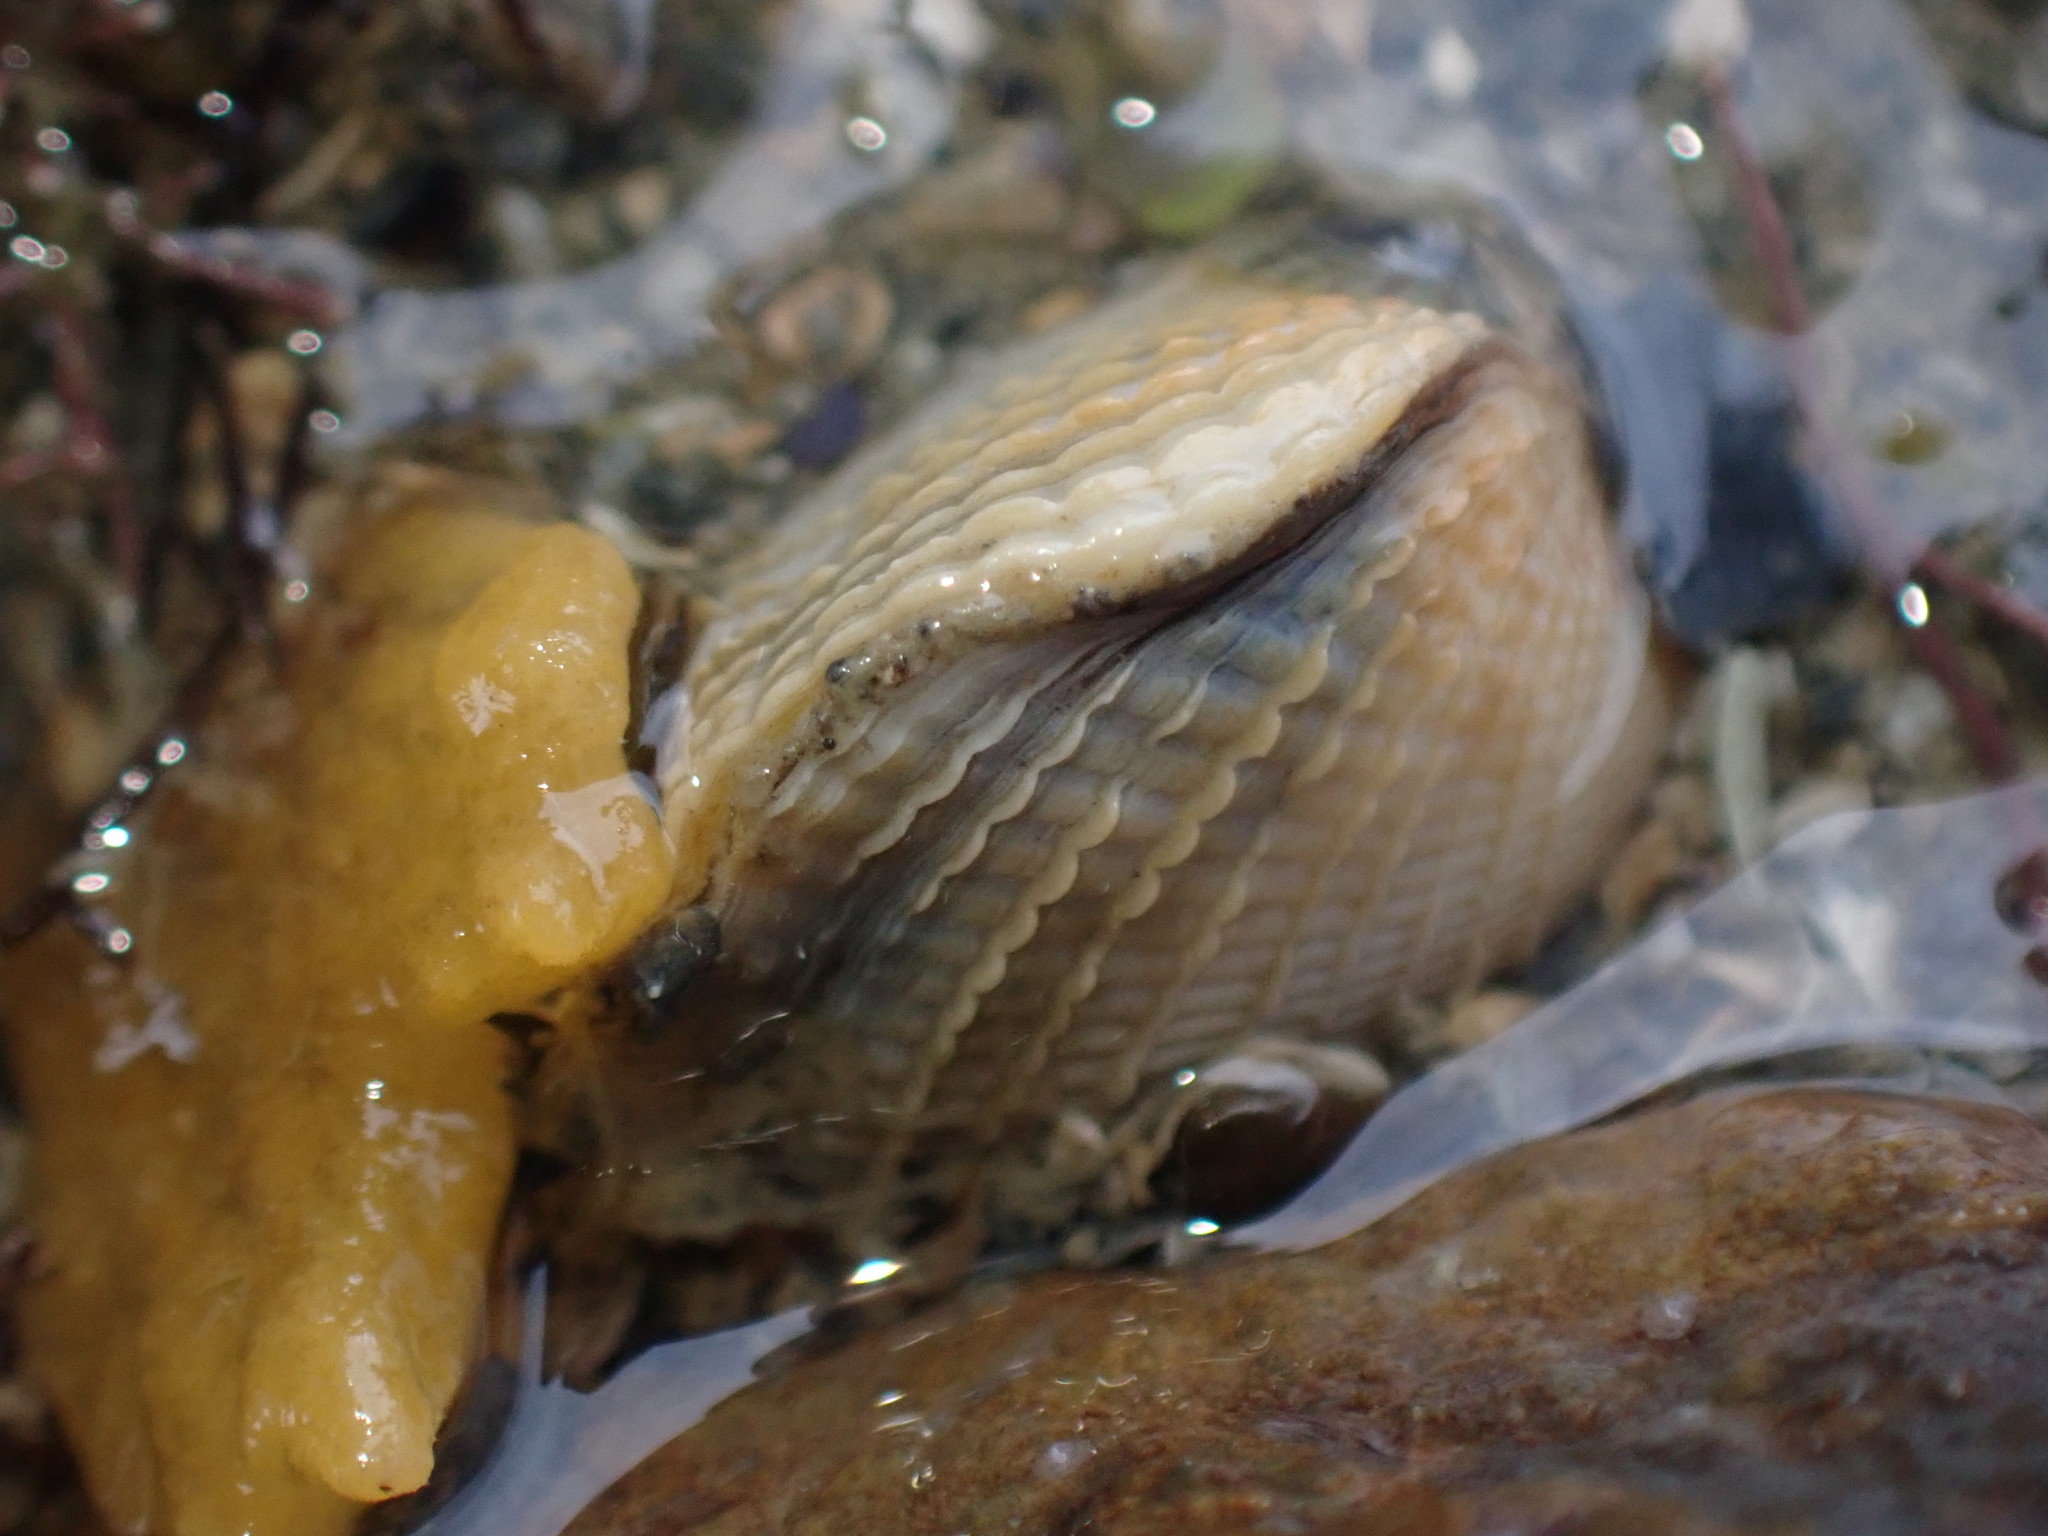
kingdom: Animalia
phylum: Mollusca
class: Bivalvia
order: Venerida
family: Veneridae
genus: Austrovenus
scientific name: Austrovenus stutchburyi
